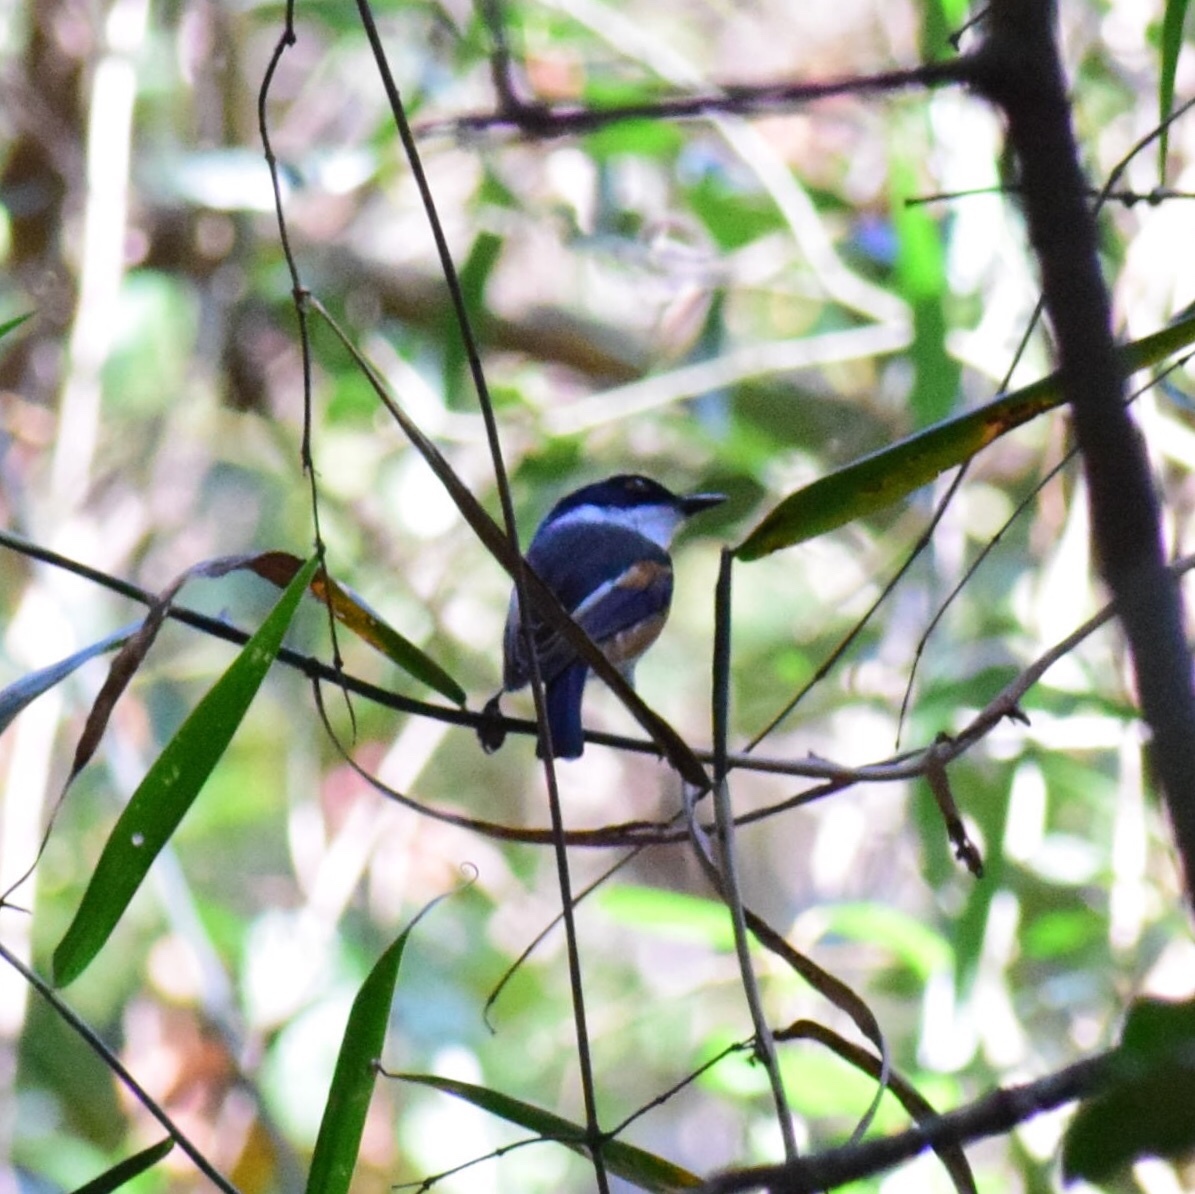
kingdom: Animalia
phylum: Chordata
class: Aves
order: Passeriformes
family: Platysteiridae
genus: Batis
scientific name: Batis capensis
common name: Cape batis
